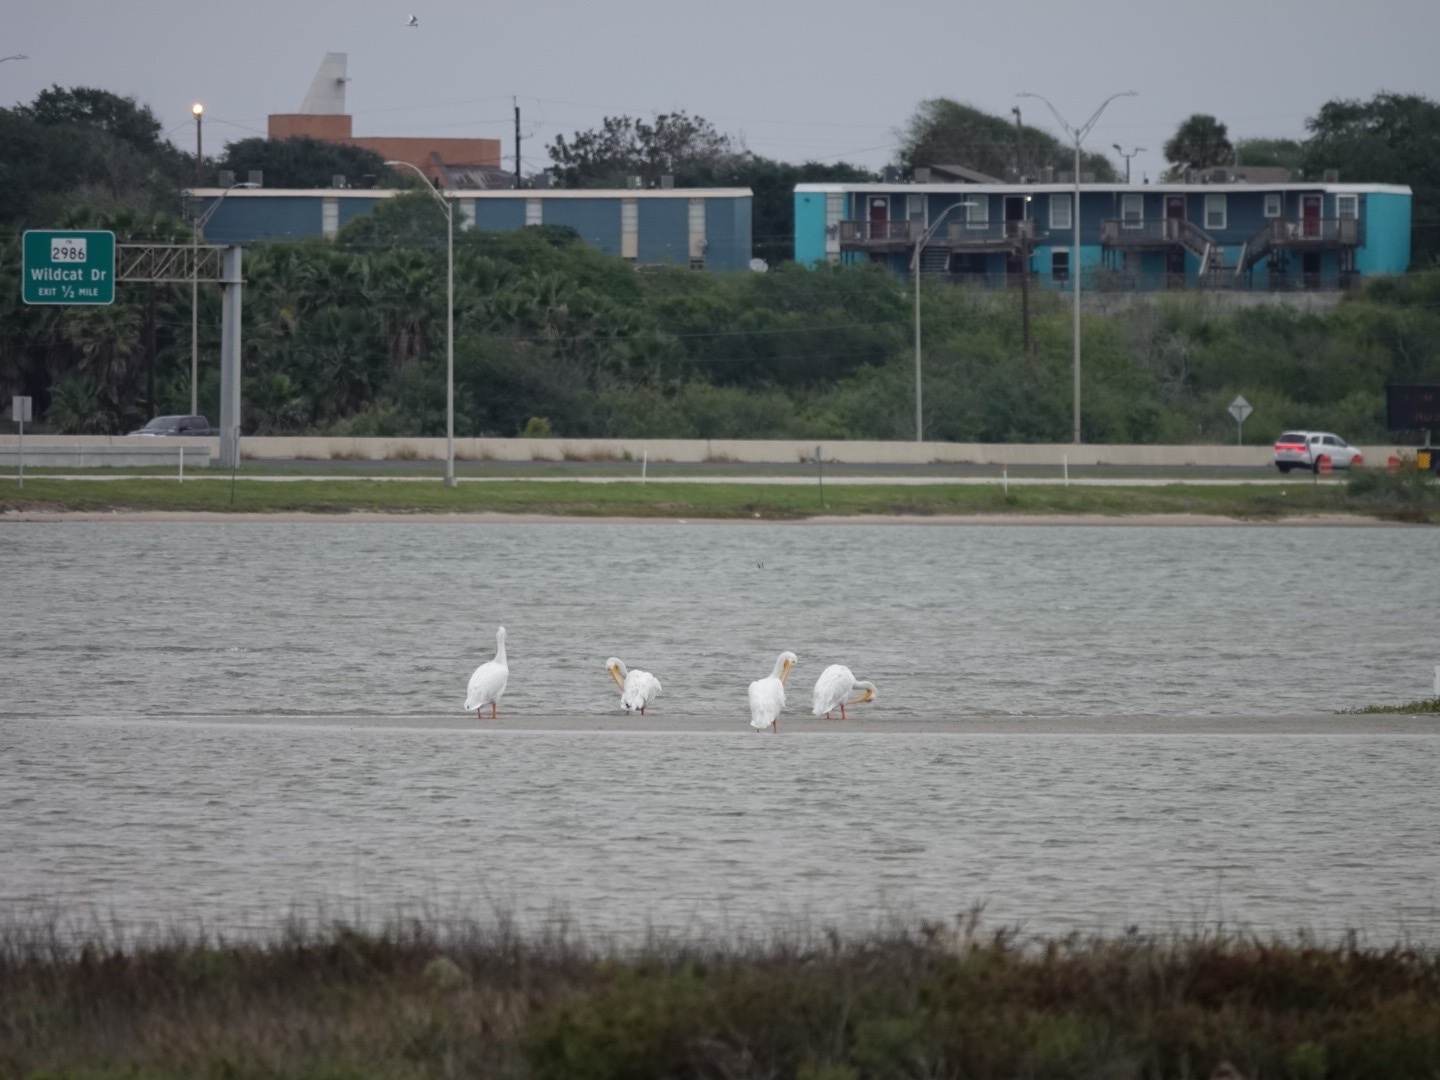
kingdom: Animalia
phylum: Chordata
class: Aves
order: Pelecaniformes
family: Pelecanidae
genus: Pelecanus
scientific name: Pelecanus erythrorhynchos
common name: American white pelican
